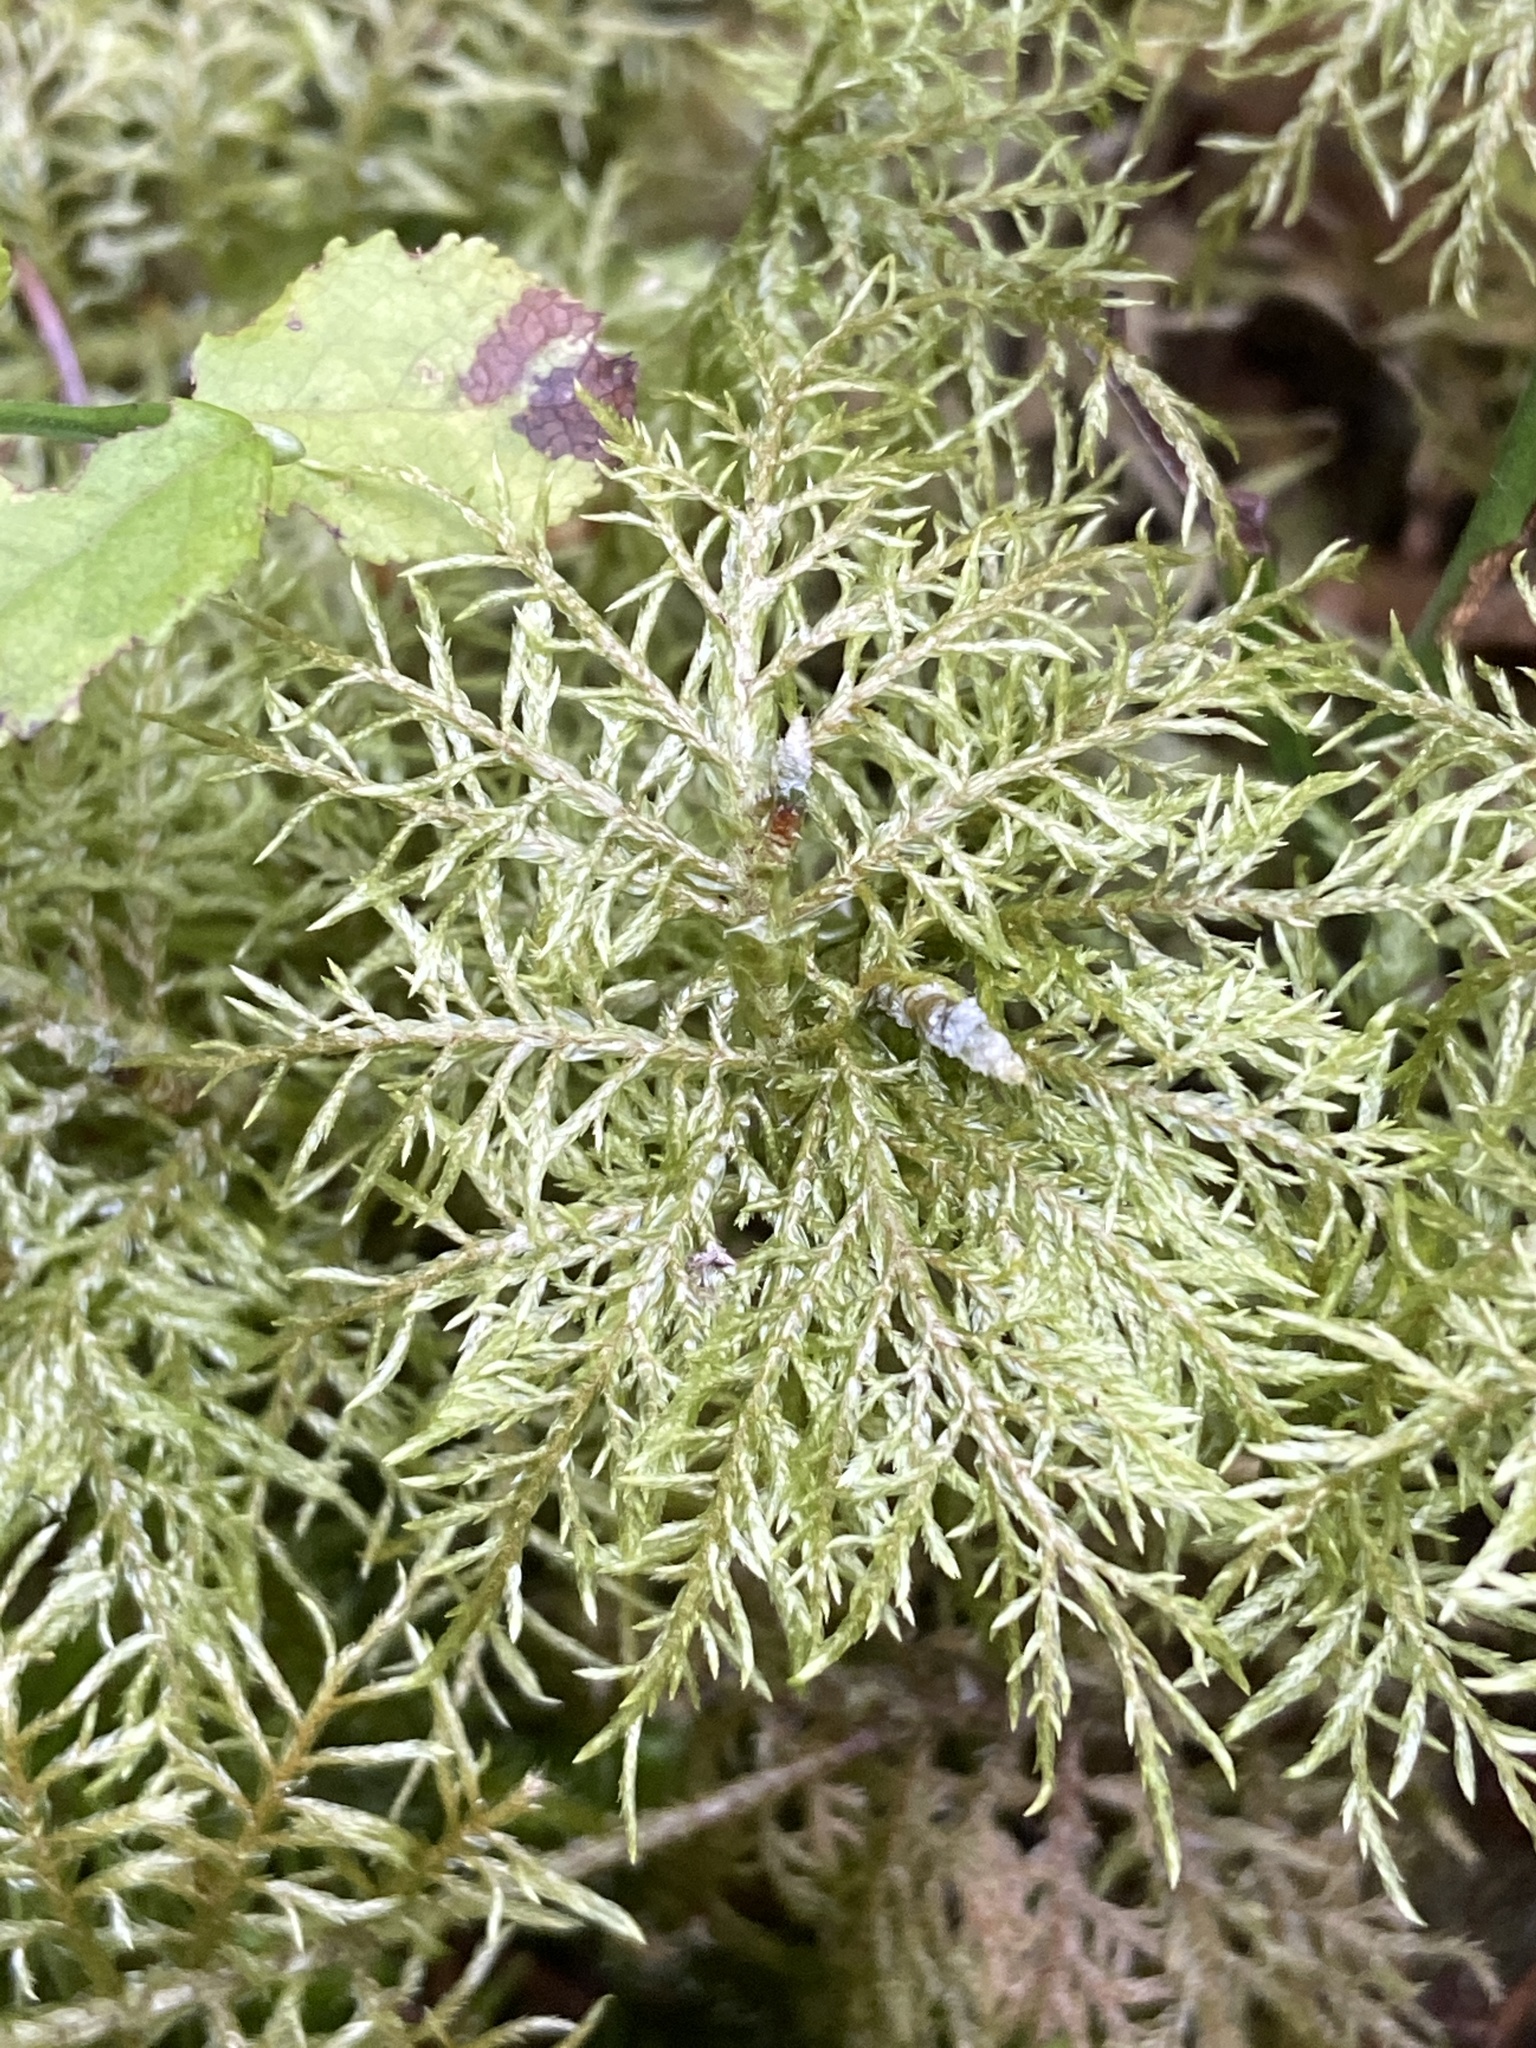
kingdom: Plantae
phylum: Bryophyta
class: Bryopsida
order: Hypnales
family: Hylocomiaceae
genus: Hylocomium
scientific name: Hylocomium splendens
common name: Stairstep moss
